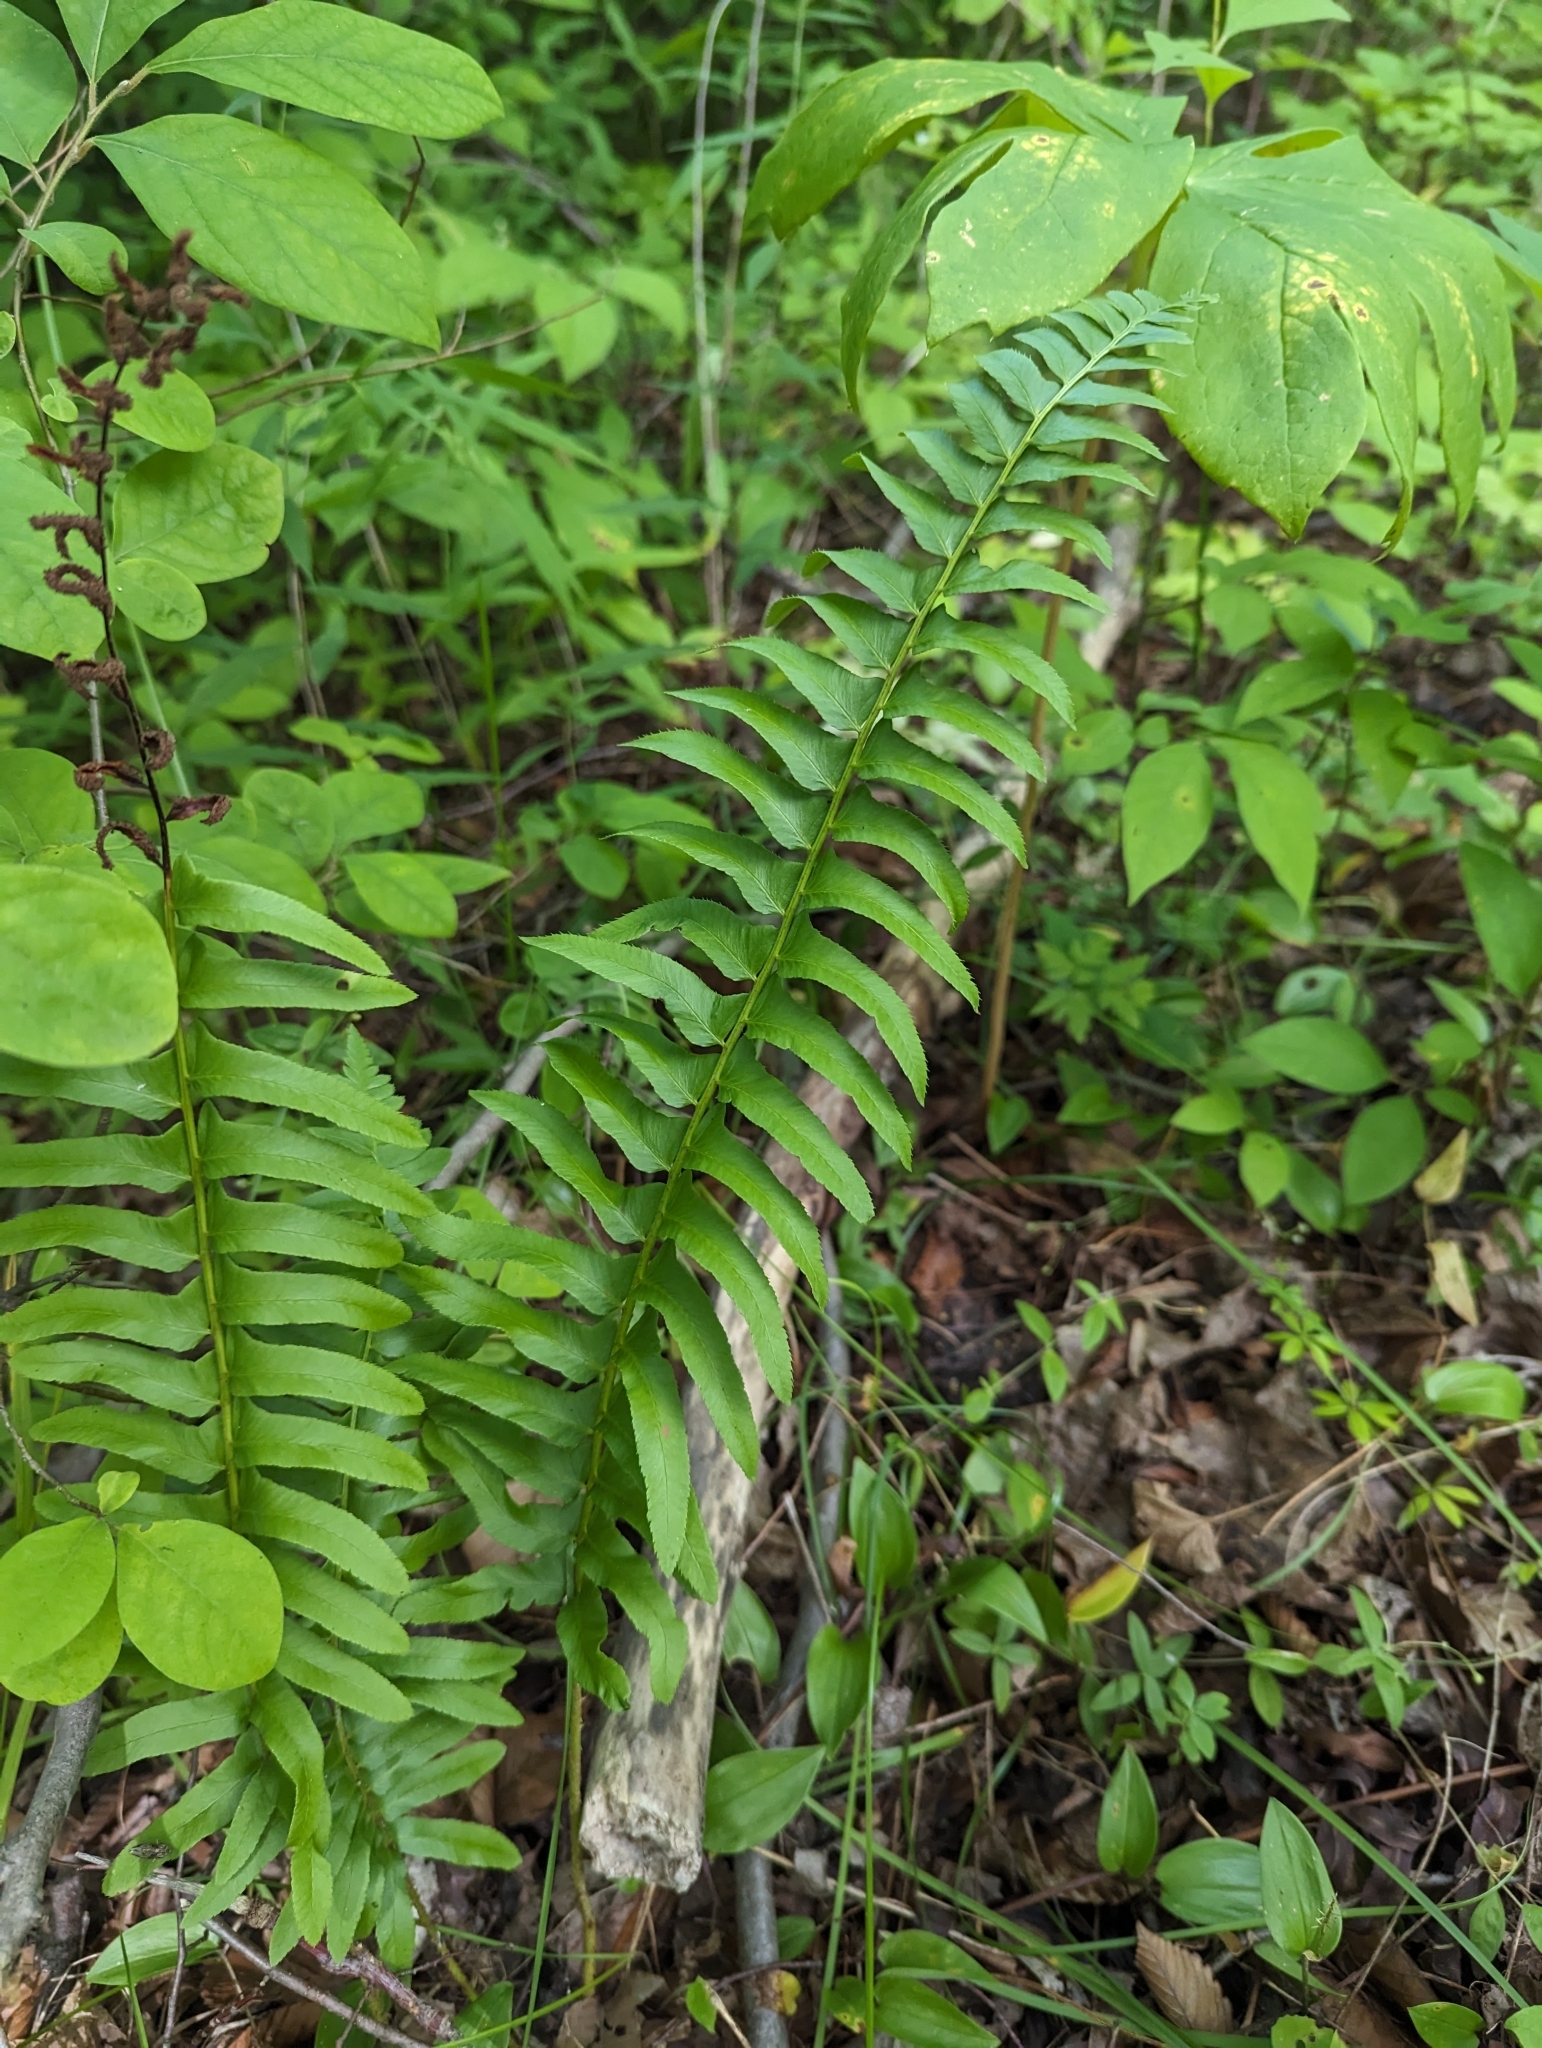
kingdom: Plantae
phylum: Tracheophyta
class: Polypodiopsida
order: Polypodiales
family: Dryopteridaceae
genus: Polystichum
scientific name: Polystichum acrostichoides
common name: Christmas fern
